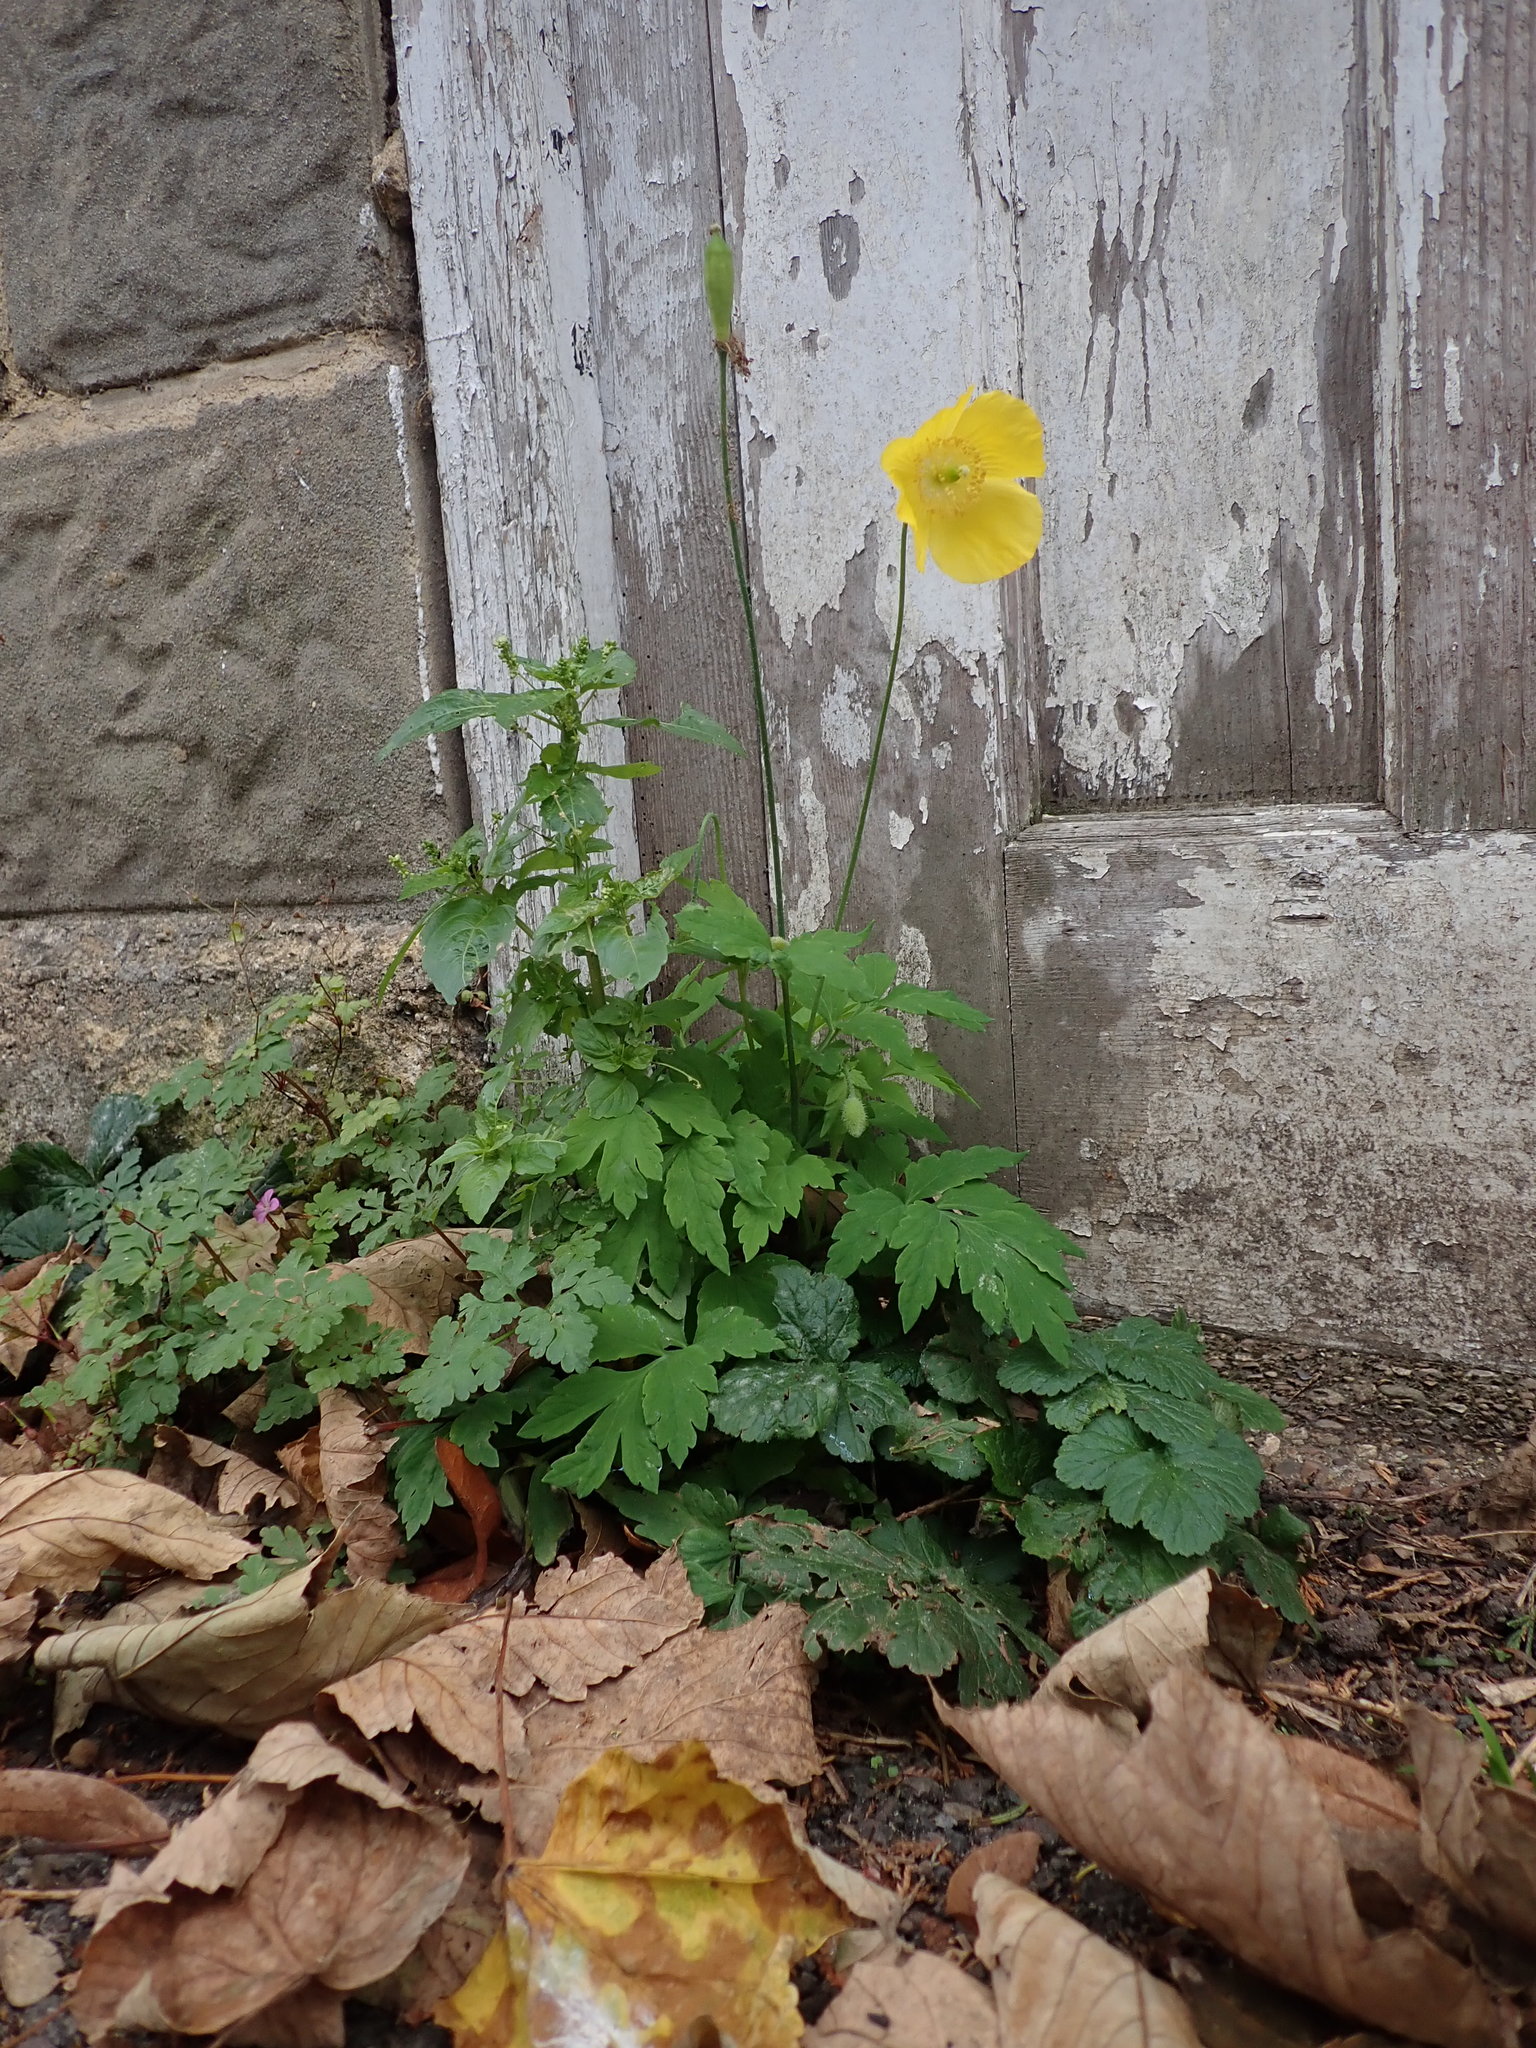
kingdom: Plantae
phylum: Tracheophyta
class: Magnoliopsida
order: Ranunculales
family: Papaveraceae
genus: Papaver
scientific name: Papaver cambricum
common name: Poppy
